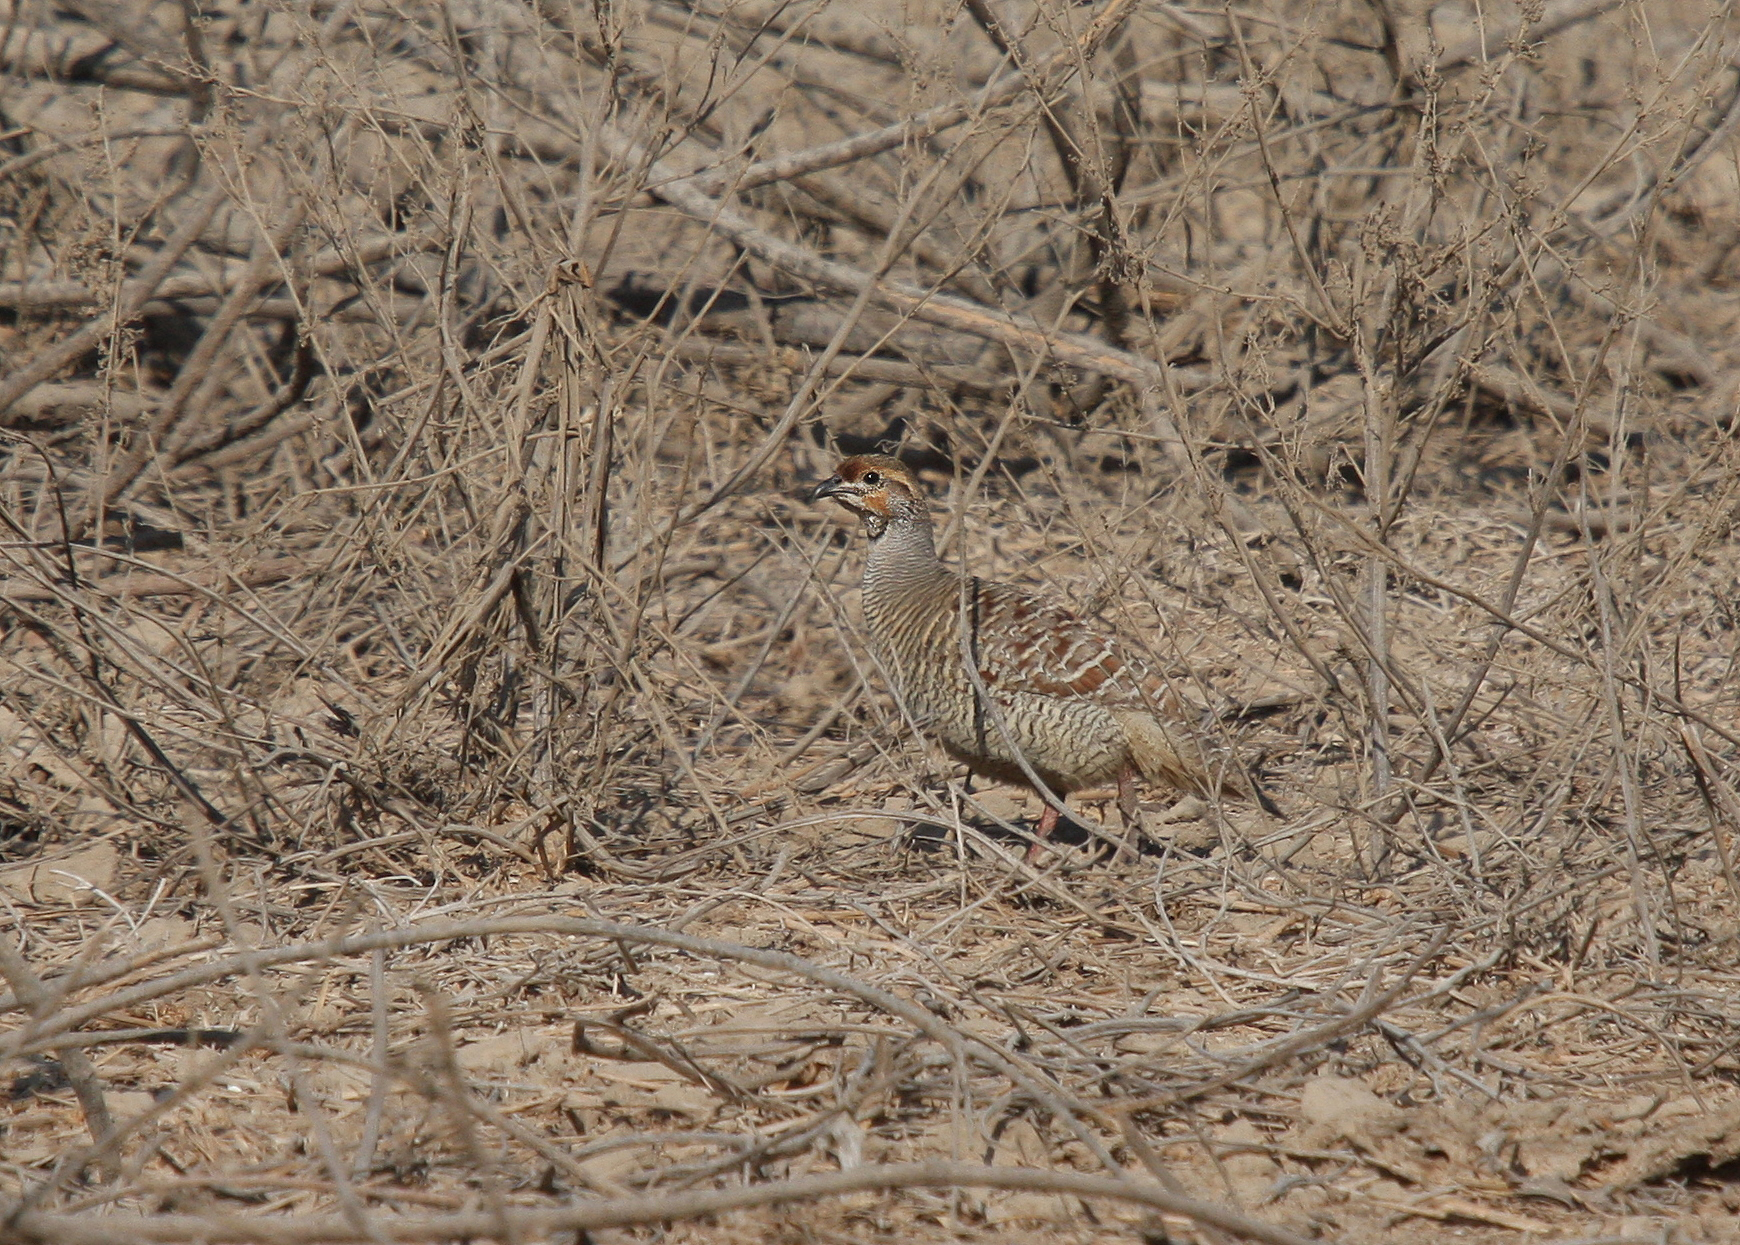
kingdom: Animalia
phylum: Chordata
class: Aves
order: Galliformes
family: Phasianidae
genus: Ortygornis
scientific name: Ortygornis pondicerianus
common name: Grey francolin
